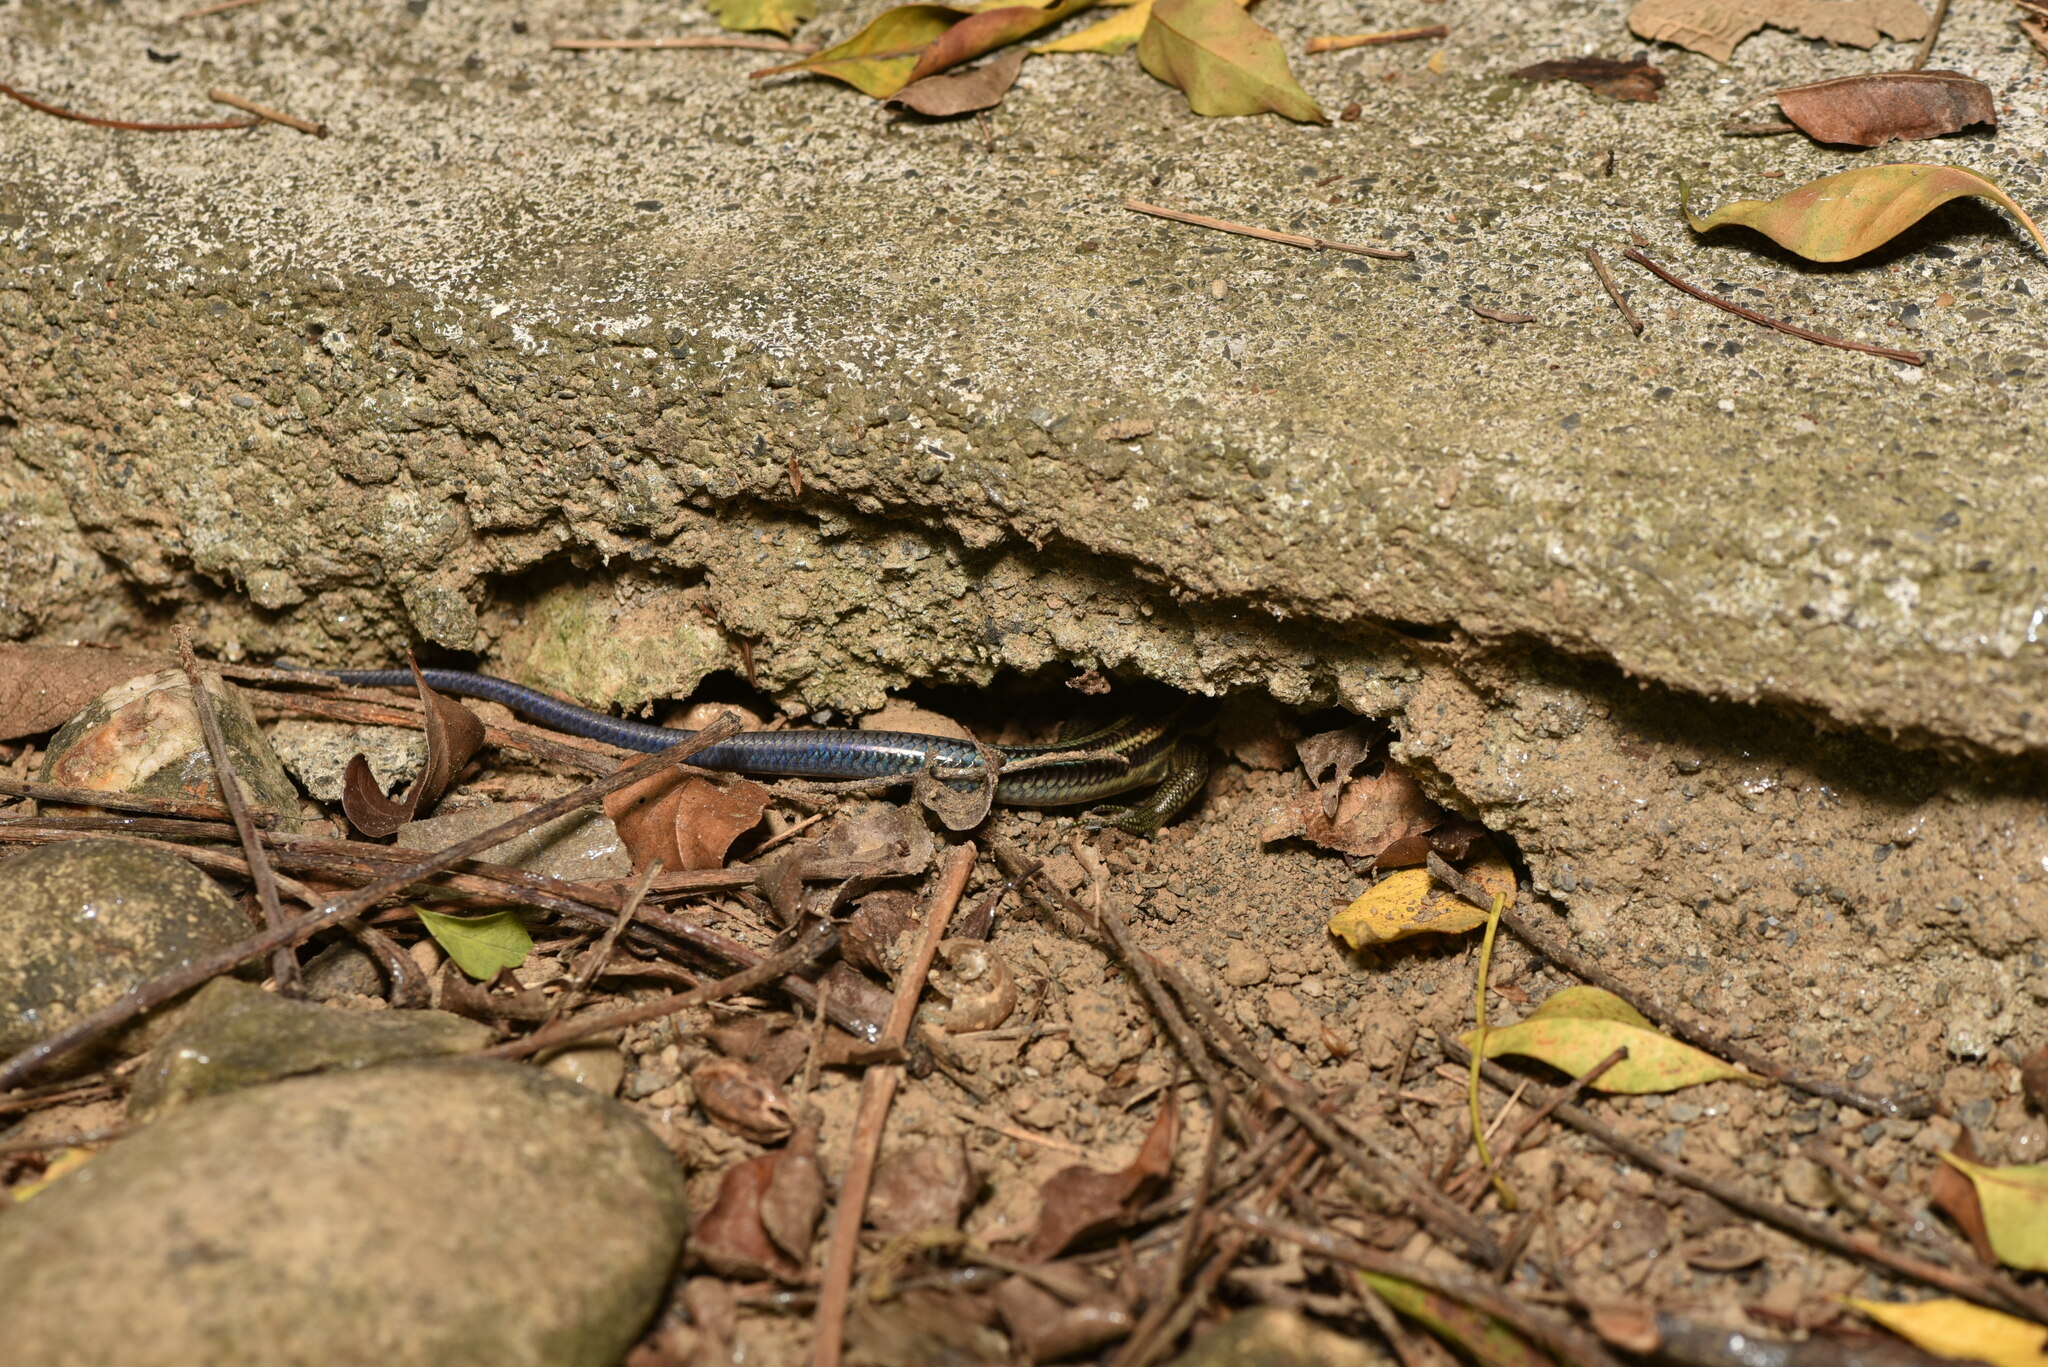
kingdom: Animalia
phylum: Chordata
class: Squamata
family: Scincidae
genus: Plestiodon
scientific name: Plestiodon elegans
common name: Shanghai elegant skink
